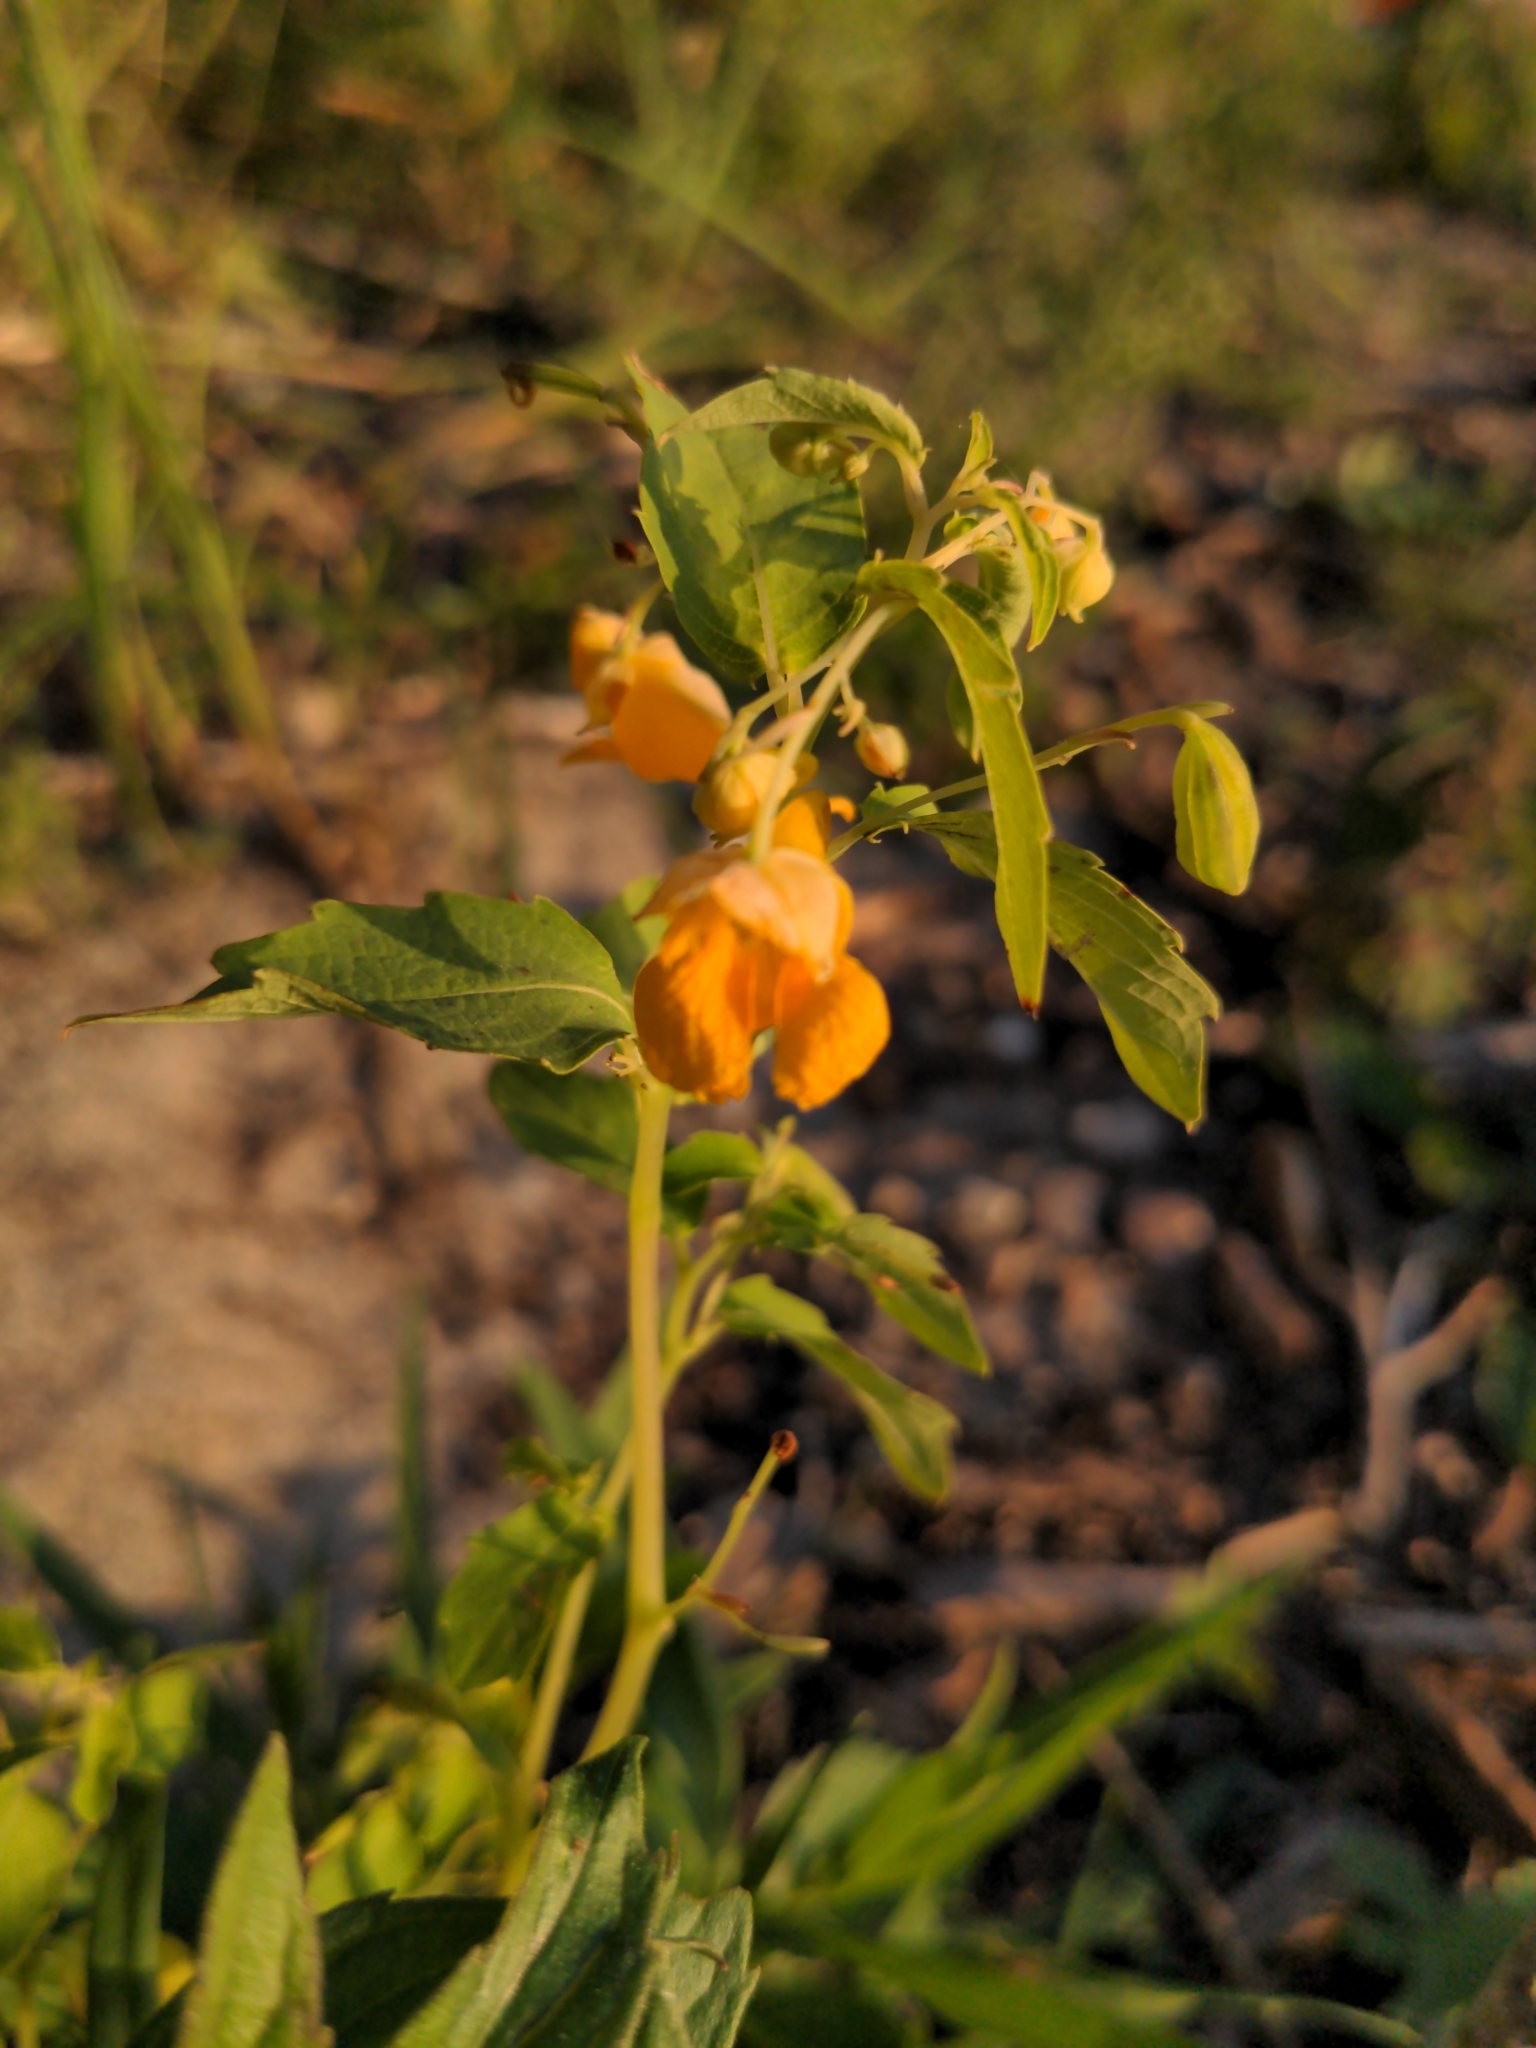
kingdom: Plantae
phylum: Tracheophyta
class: Magnoliopsida
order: Ericales
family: Balsaminaceae
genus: Impatiens
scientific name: Impatiens capensis
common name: Orange balsam
